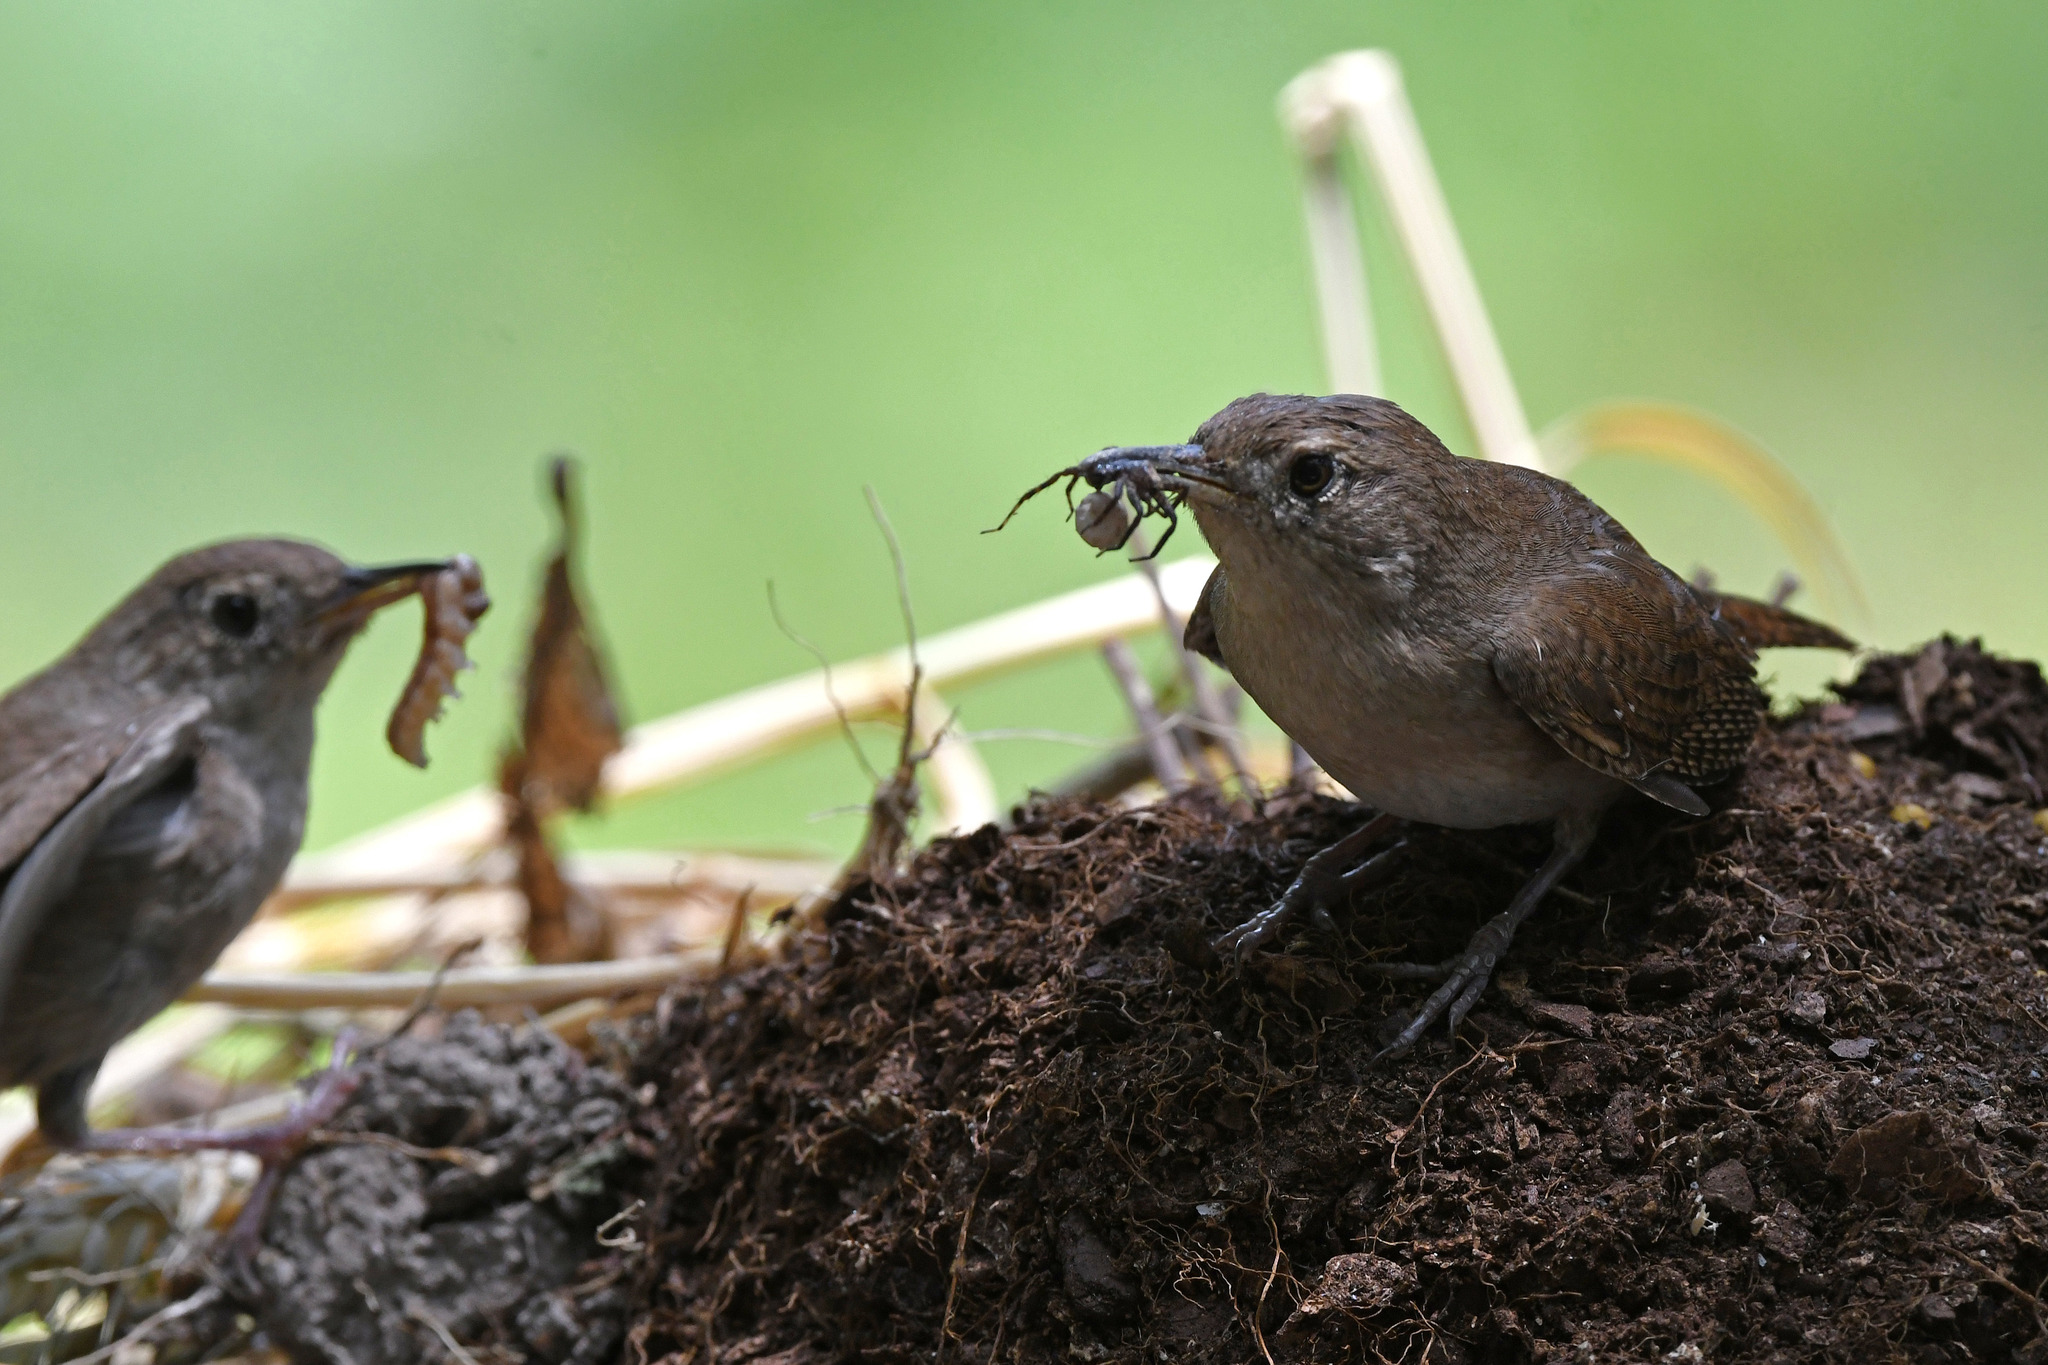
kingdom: Animalia
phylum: Chordata
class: Aves
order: Passeriformes
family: Troglodytidae
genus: Troglodytes
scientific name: Troglodytes aedon
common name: House wren
